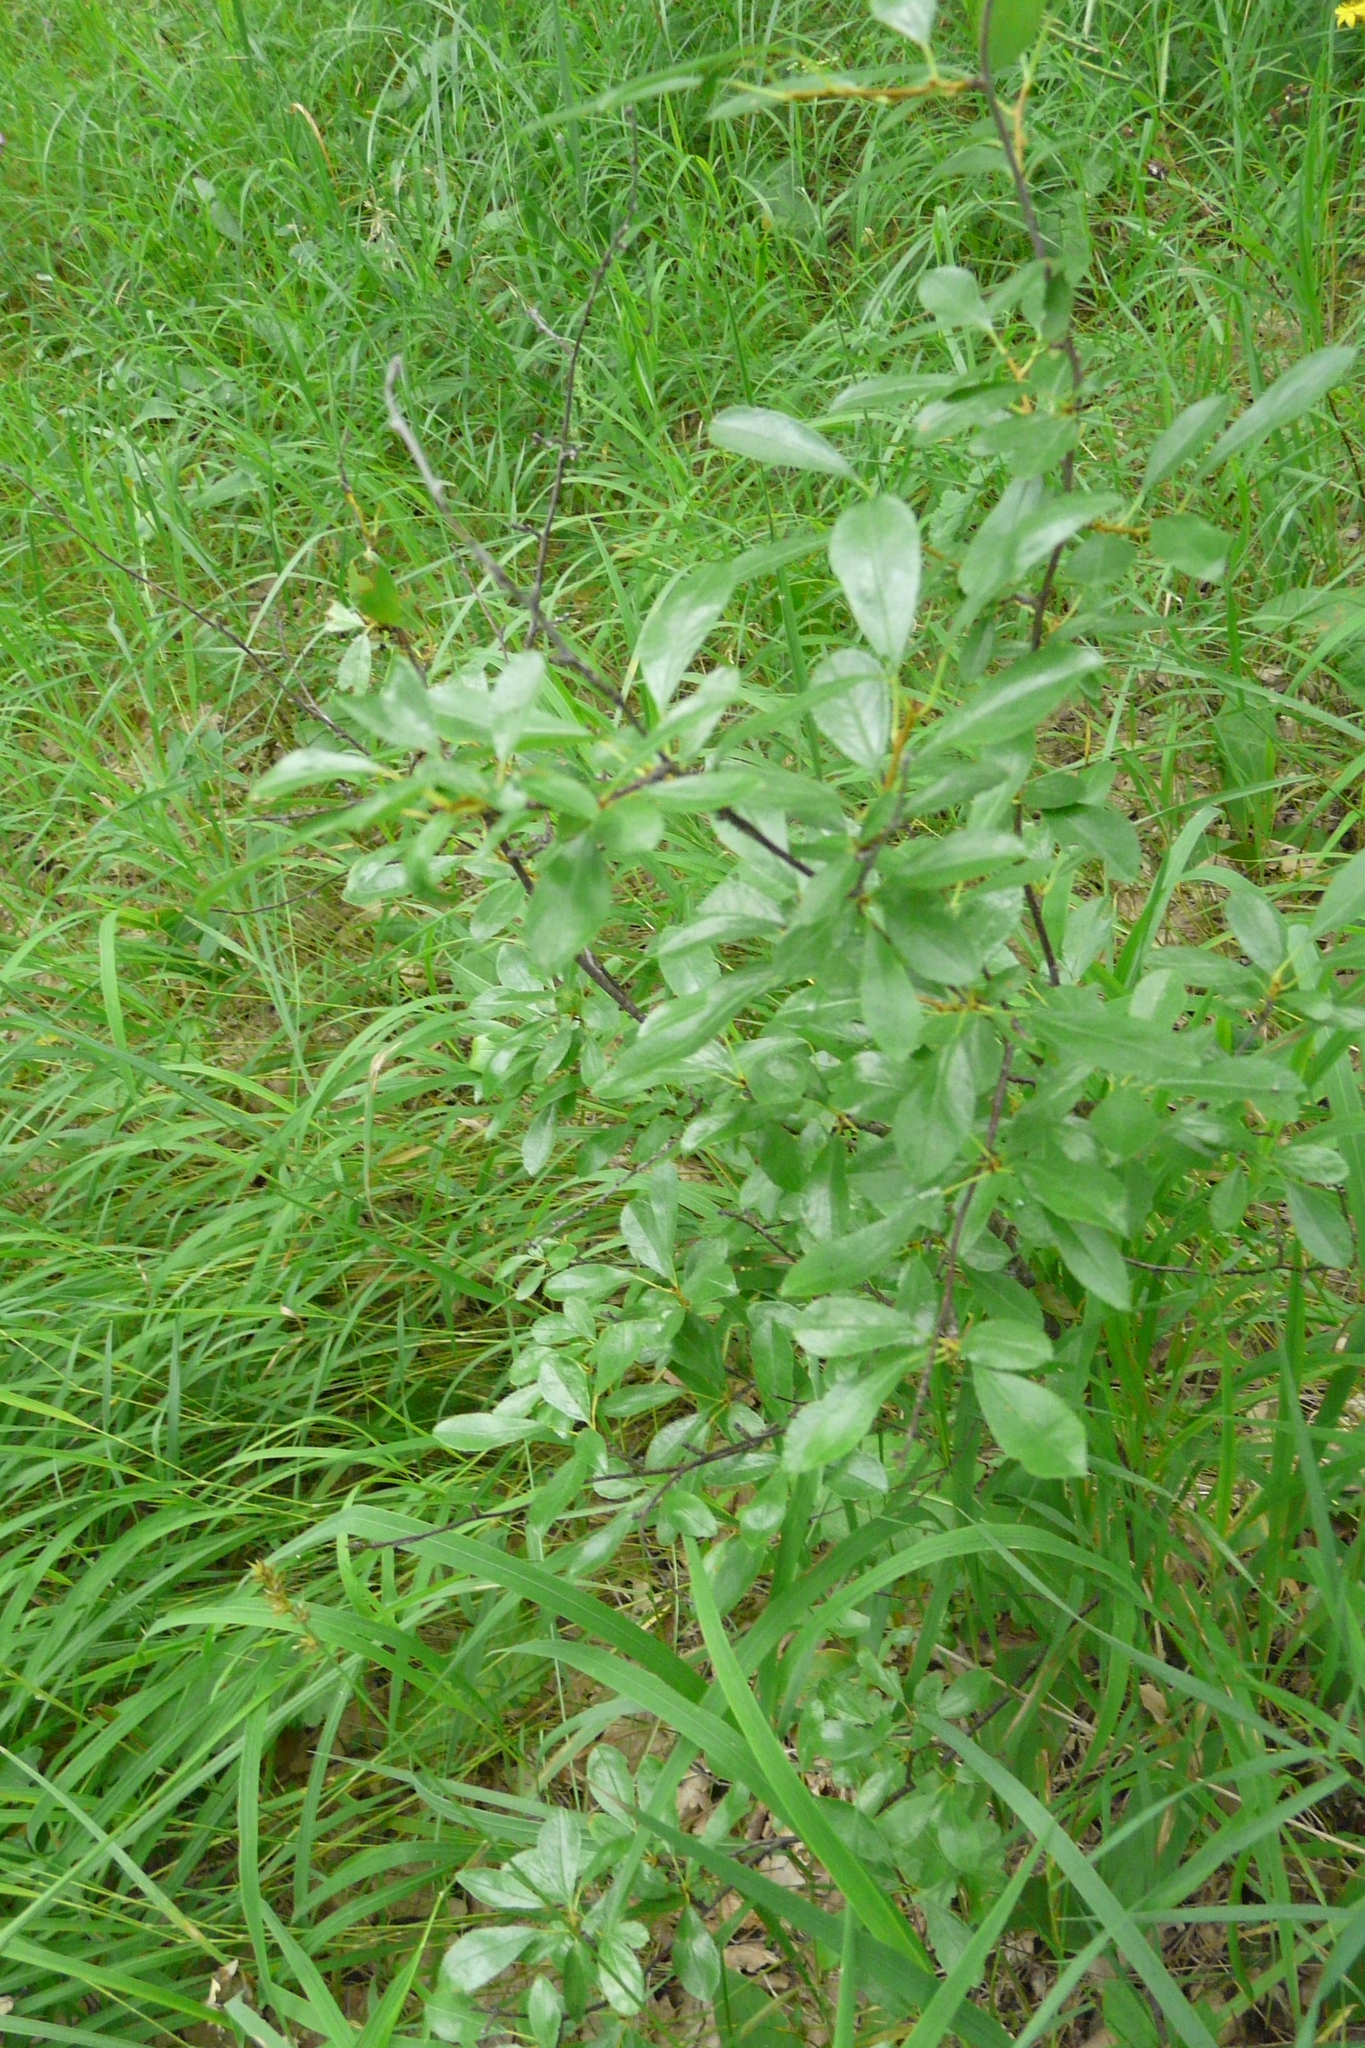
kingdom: Plantae
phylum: Tracheophyta
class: Magnoliopsida
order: Rosales
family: Rosaceae
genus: Prunus
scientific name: Prunus fruticosa
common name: European dwarf cherry
